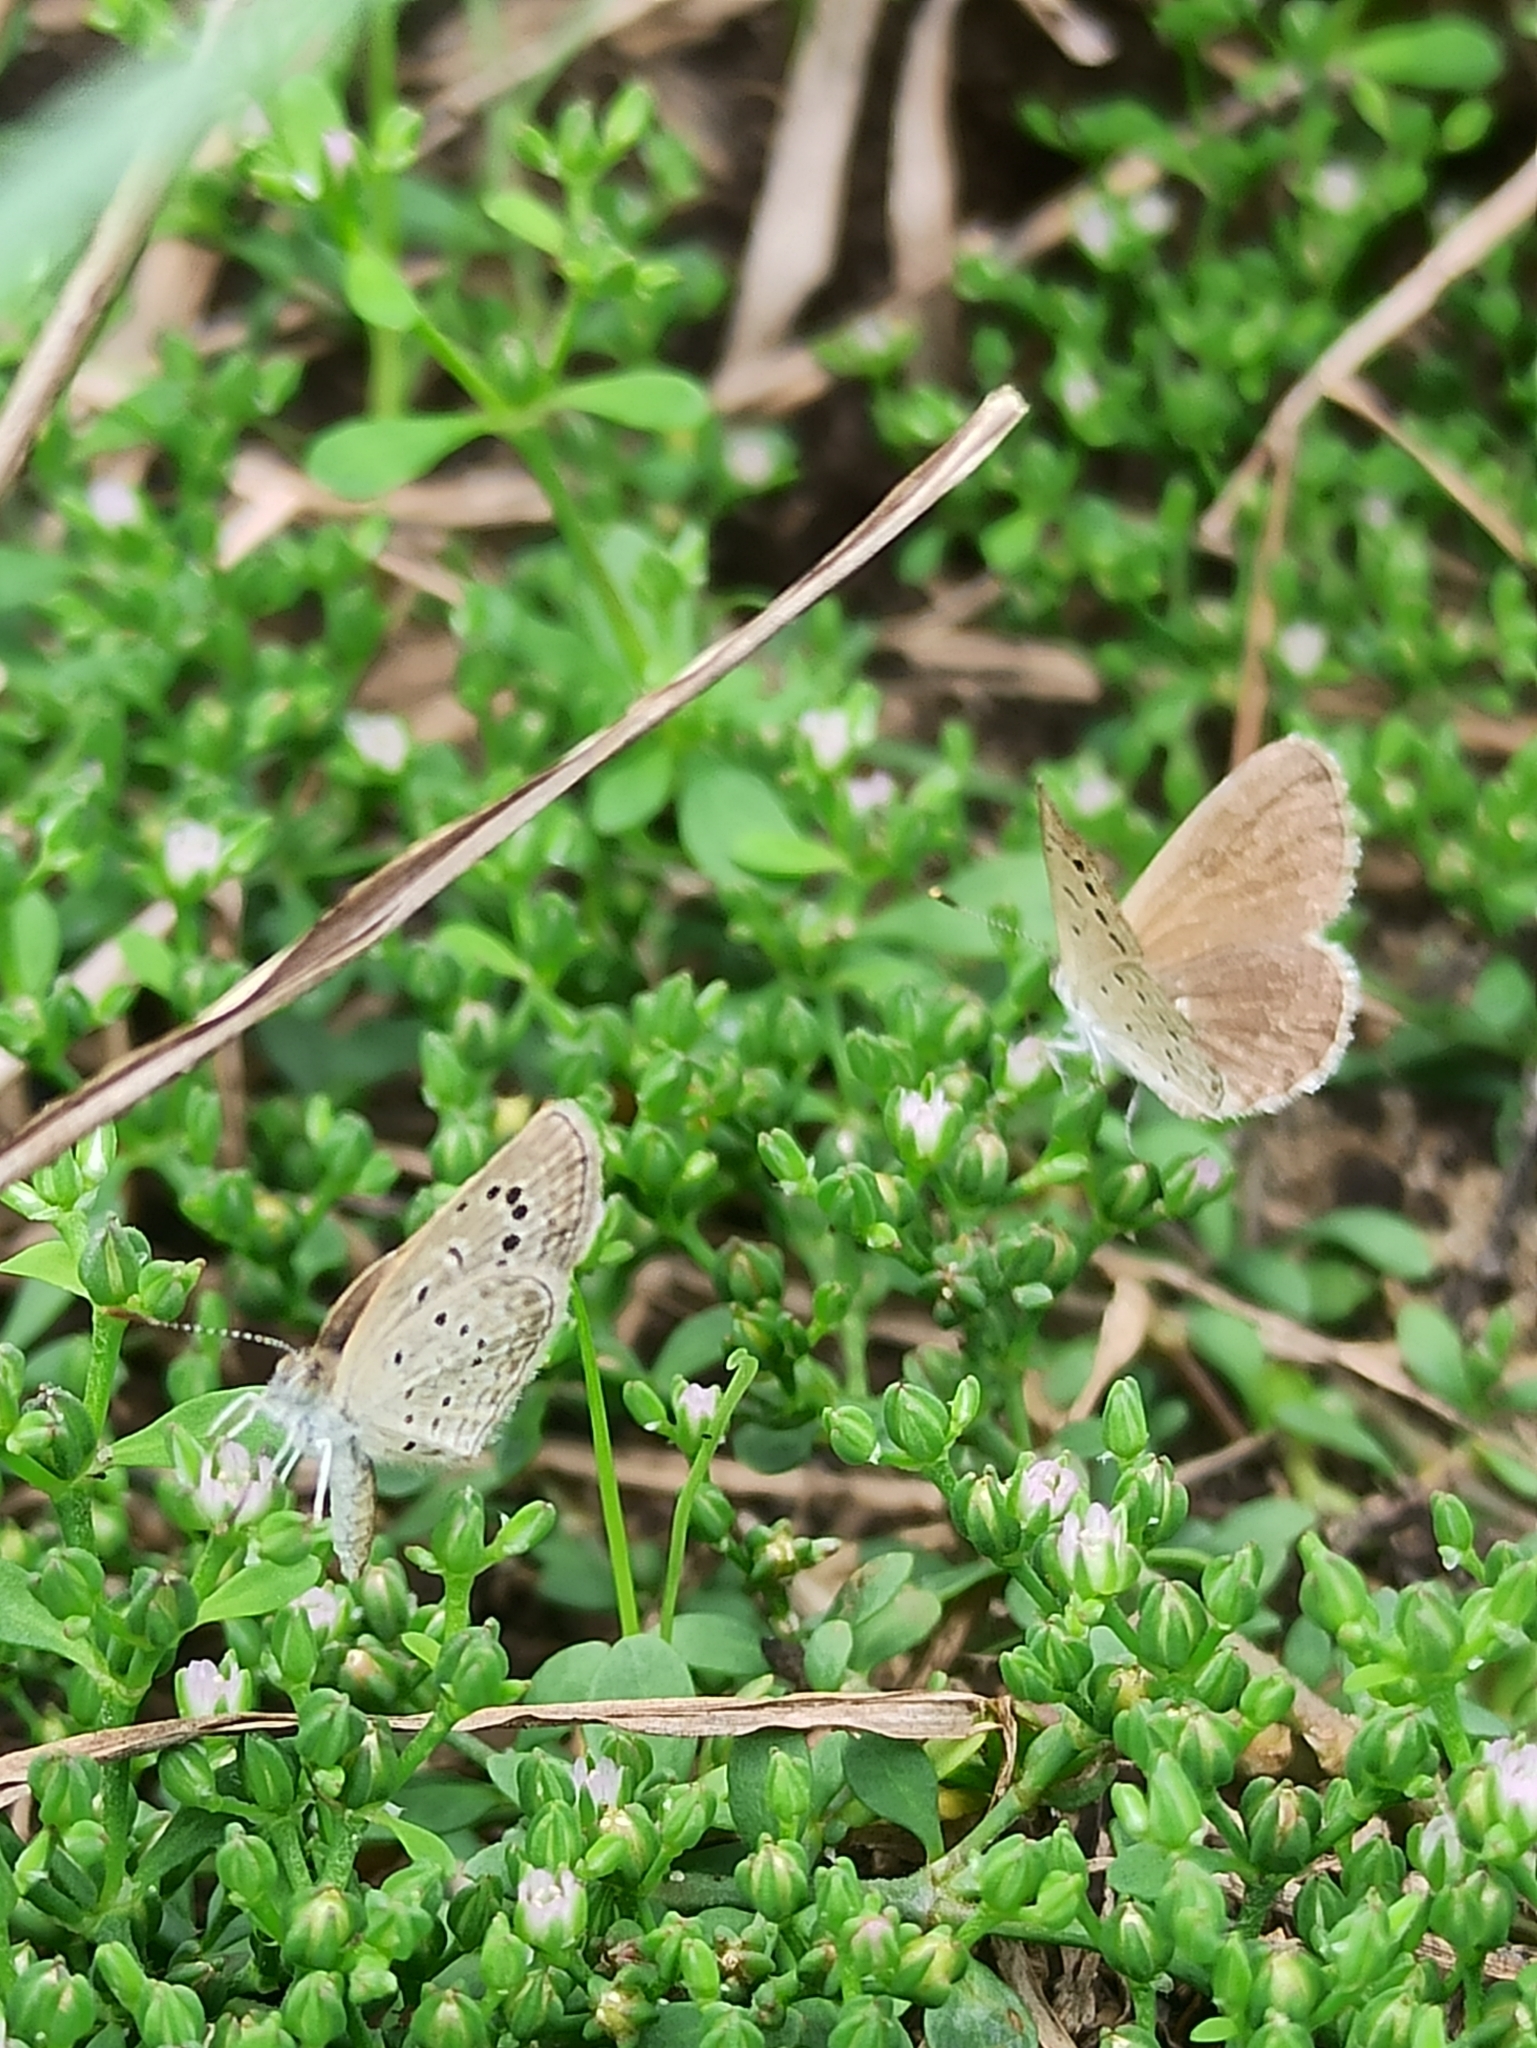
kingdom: Animalia
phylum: Arthropoda
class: Insecta
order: Lepidoptera
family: Lycaenidae
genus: Zizeeria
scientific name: Zizeeria karsandra
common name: Dark grass blue
